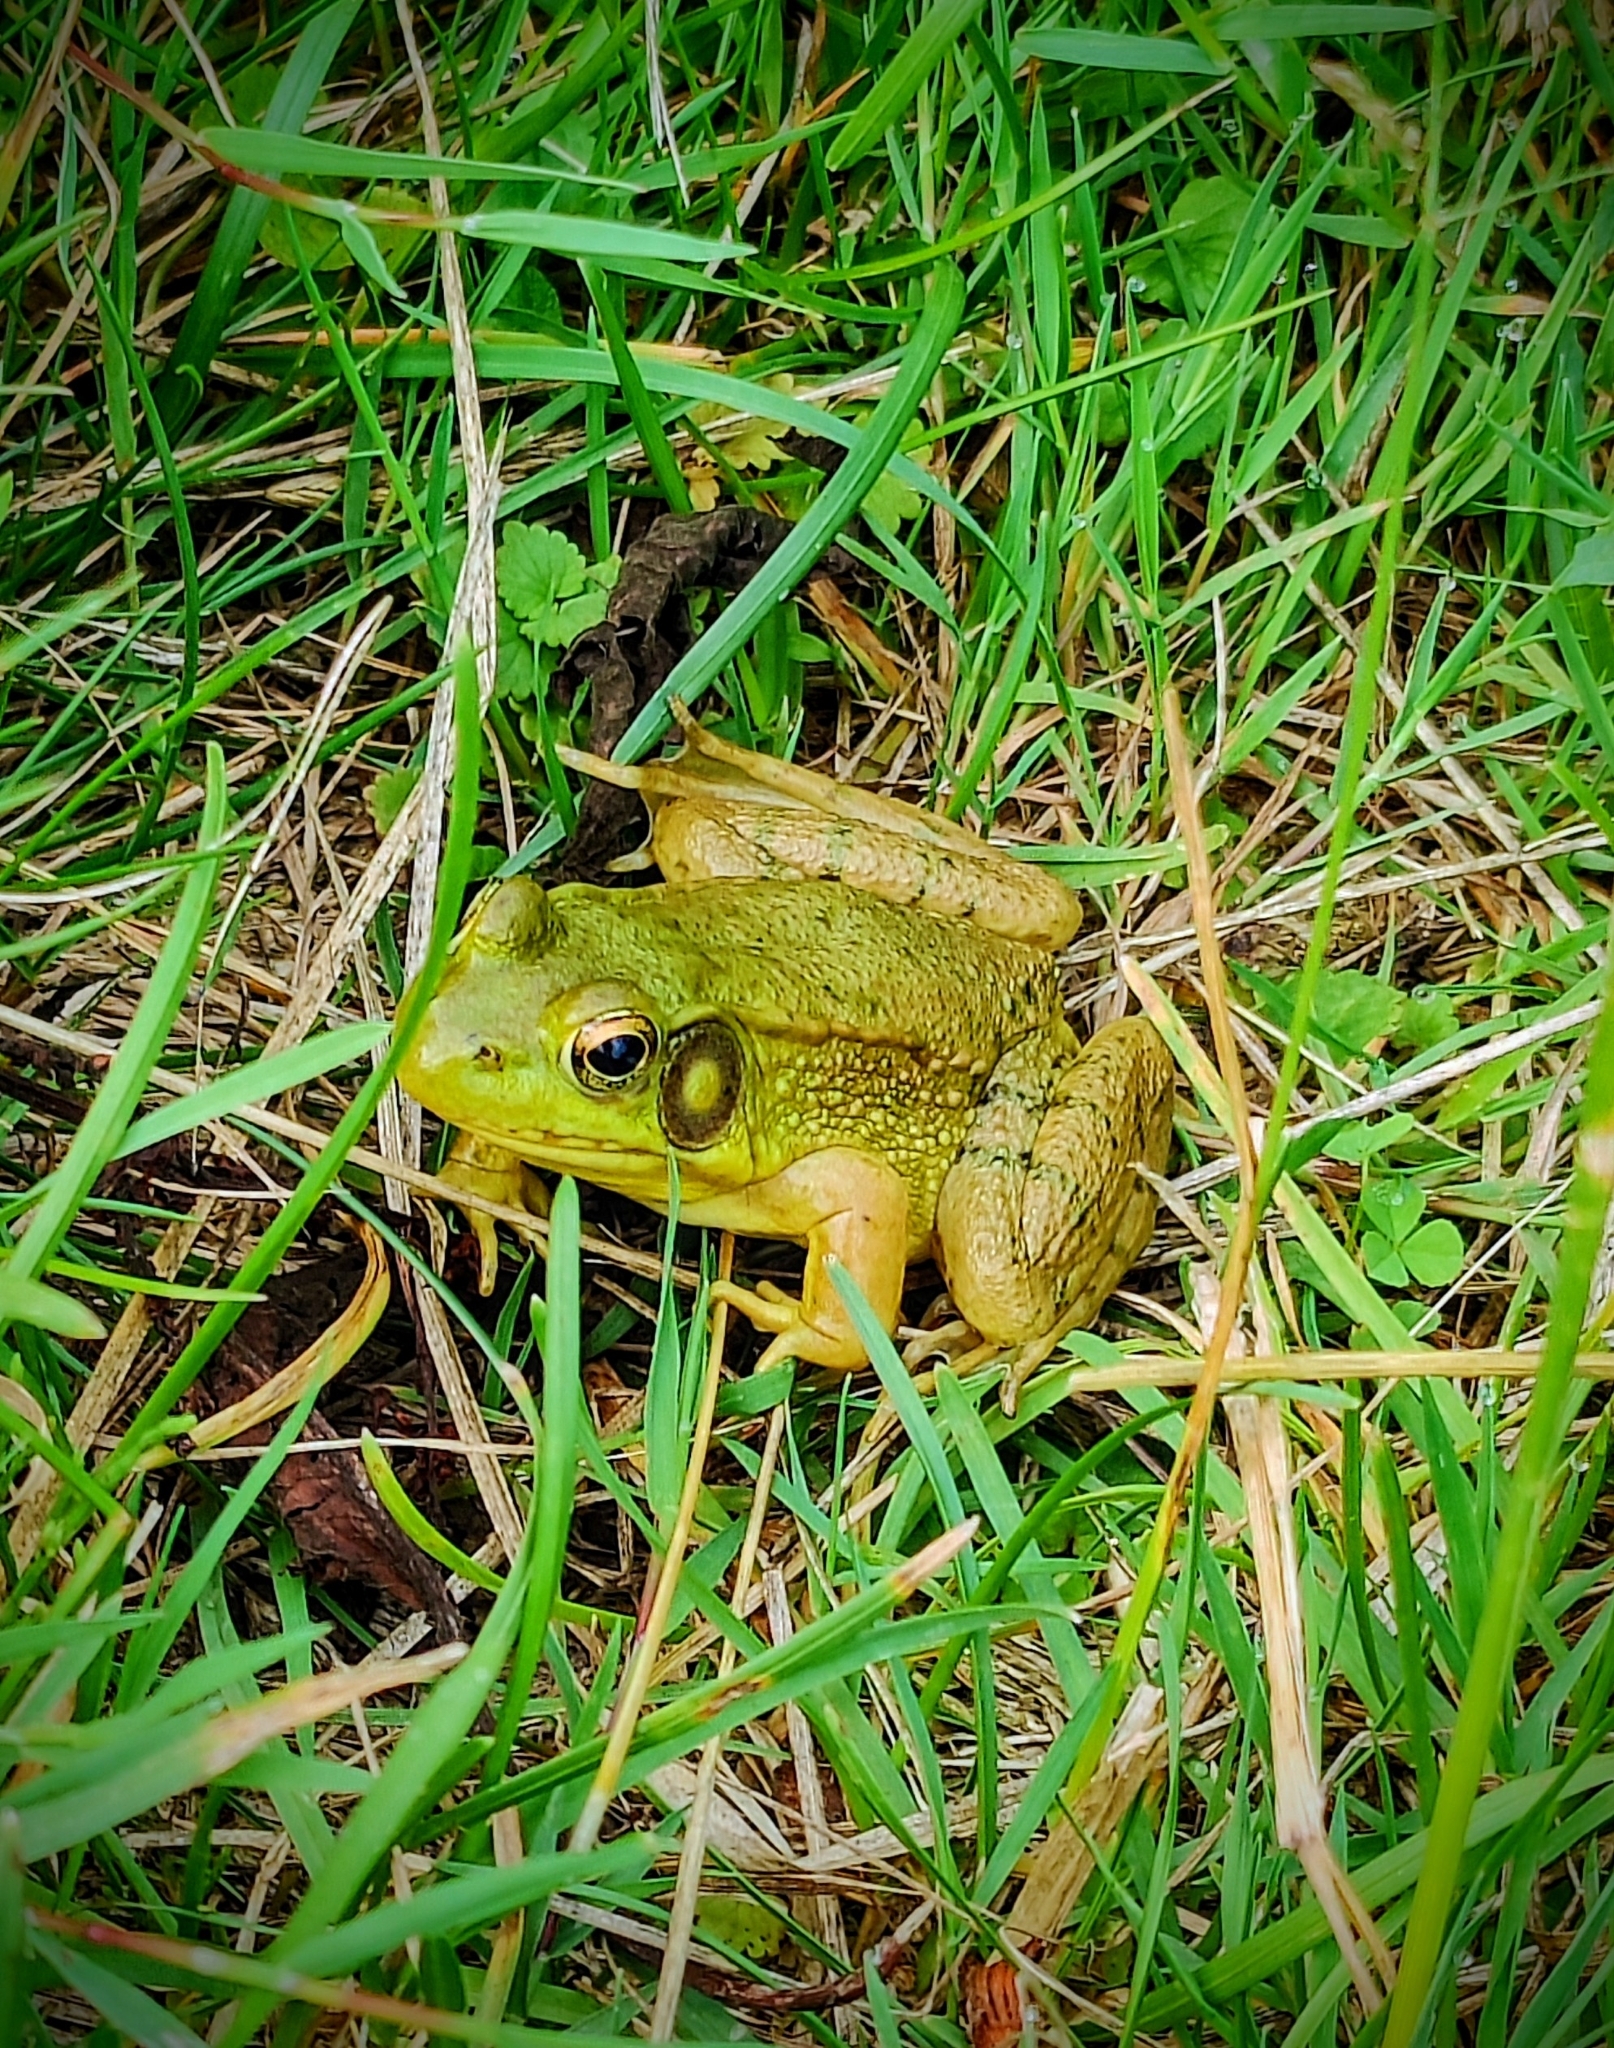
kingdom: Animalia
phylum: Chordata
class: Amphibia
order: Anura
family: Ranidae
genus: Lithobates
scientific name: Lithobates clamitans
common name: Green frog
